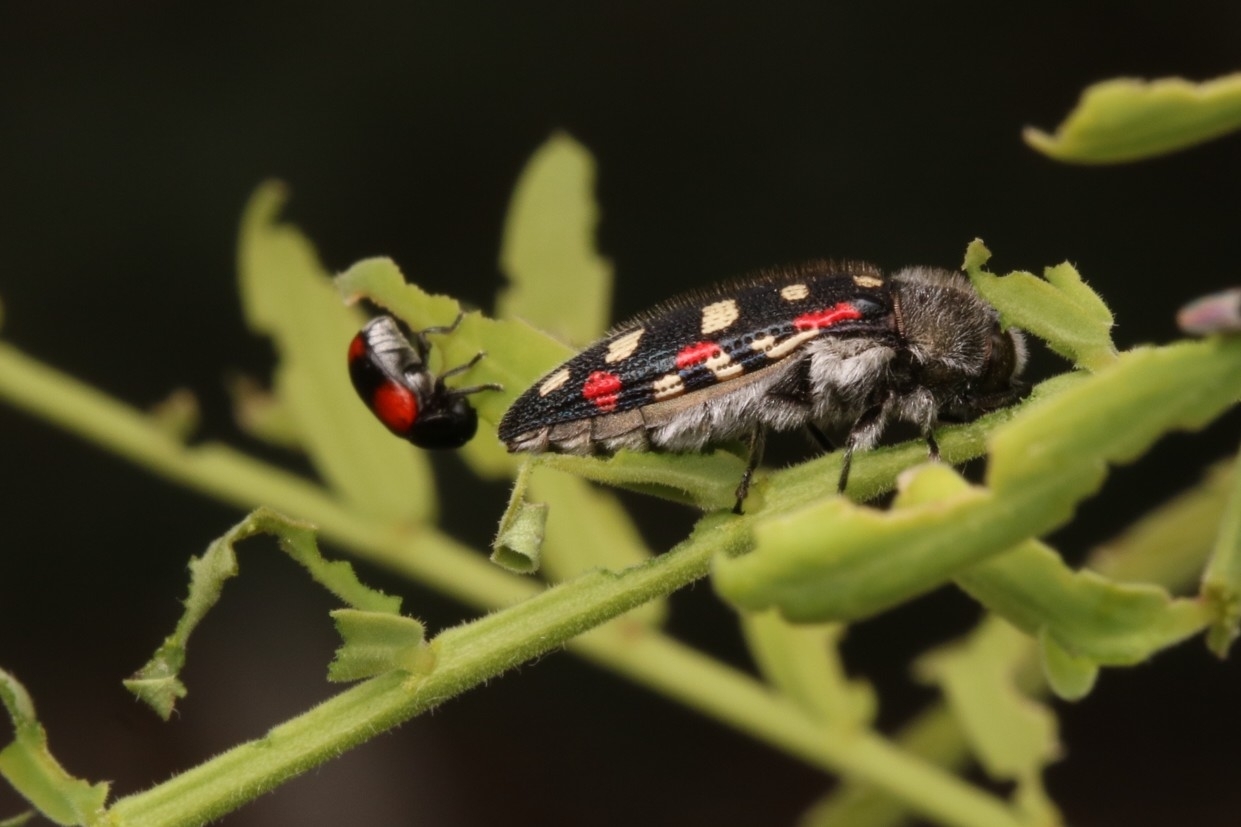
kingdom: Animalia
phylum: Arthropoda
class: Insecta
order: Coleoptera
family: Buprestidae
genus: Acmaeodera
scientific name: Acmaeodera gibbula
